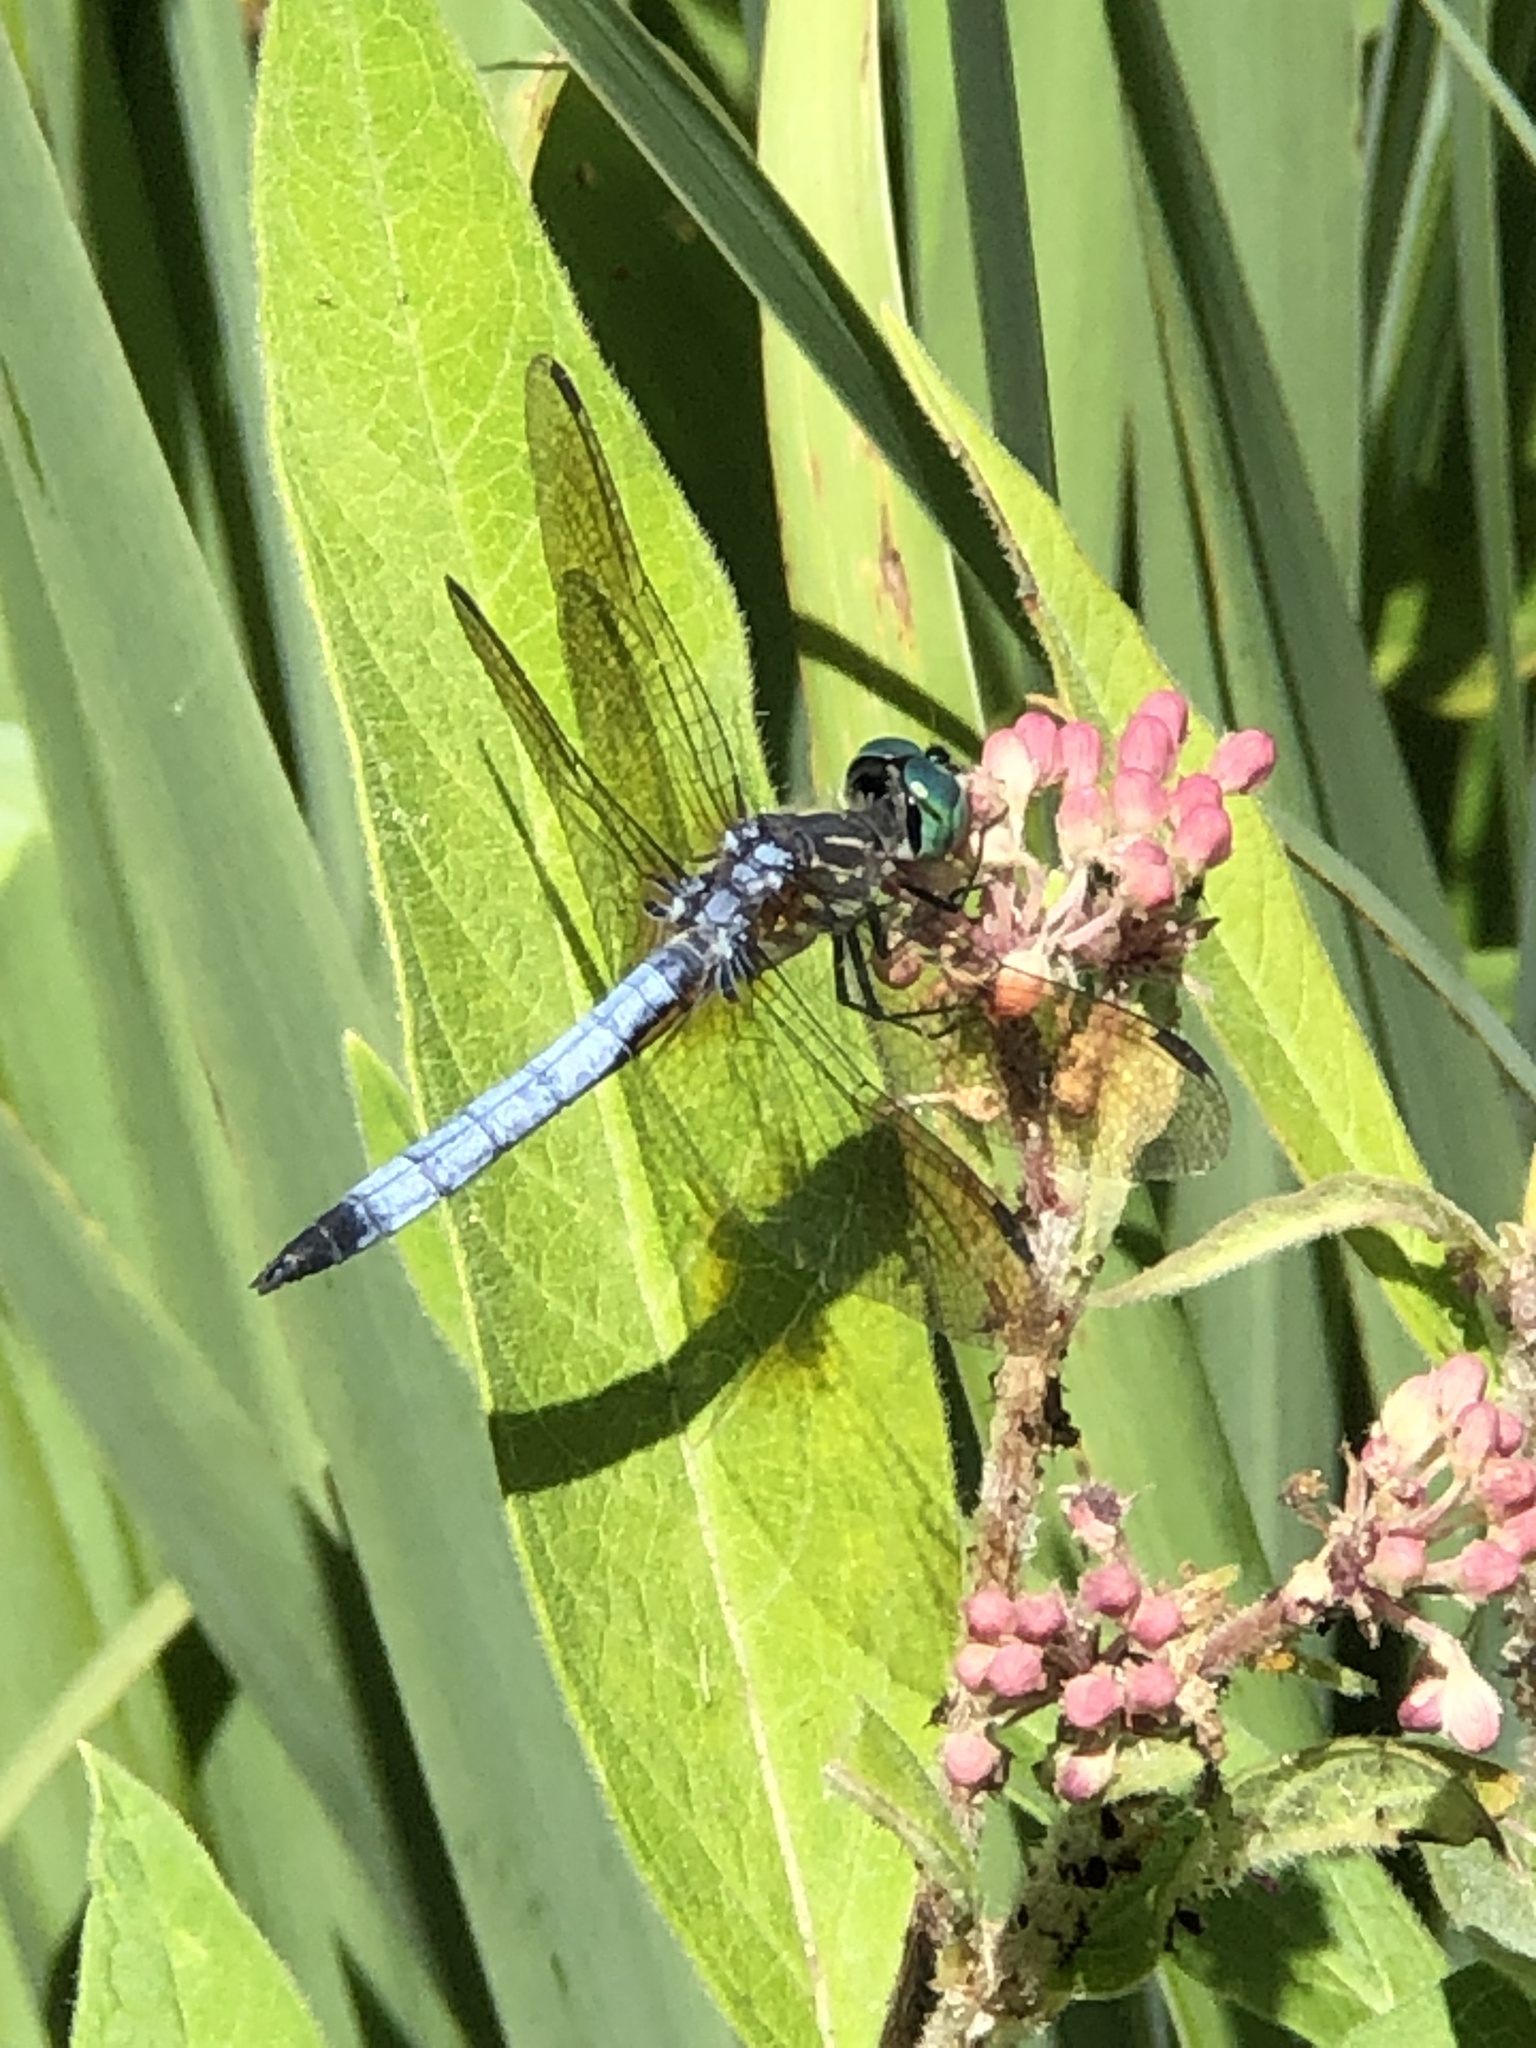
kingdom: Animalia
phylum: Arthropoda
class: Insecta
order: Odonata
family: Libellulidae
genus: Pachydiplax
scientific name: Pachydiplax longipennis
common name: Blue dasher
